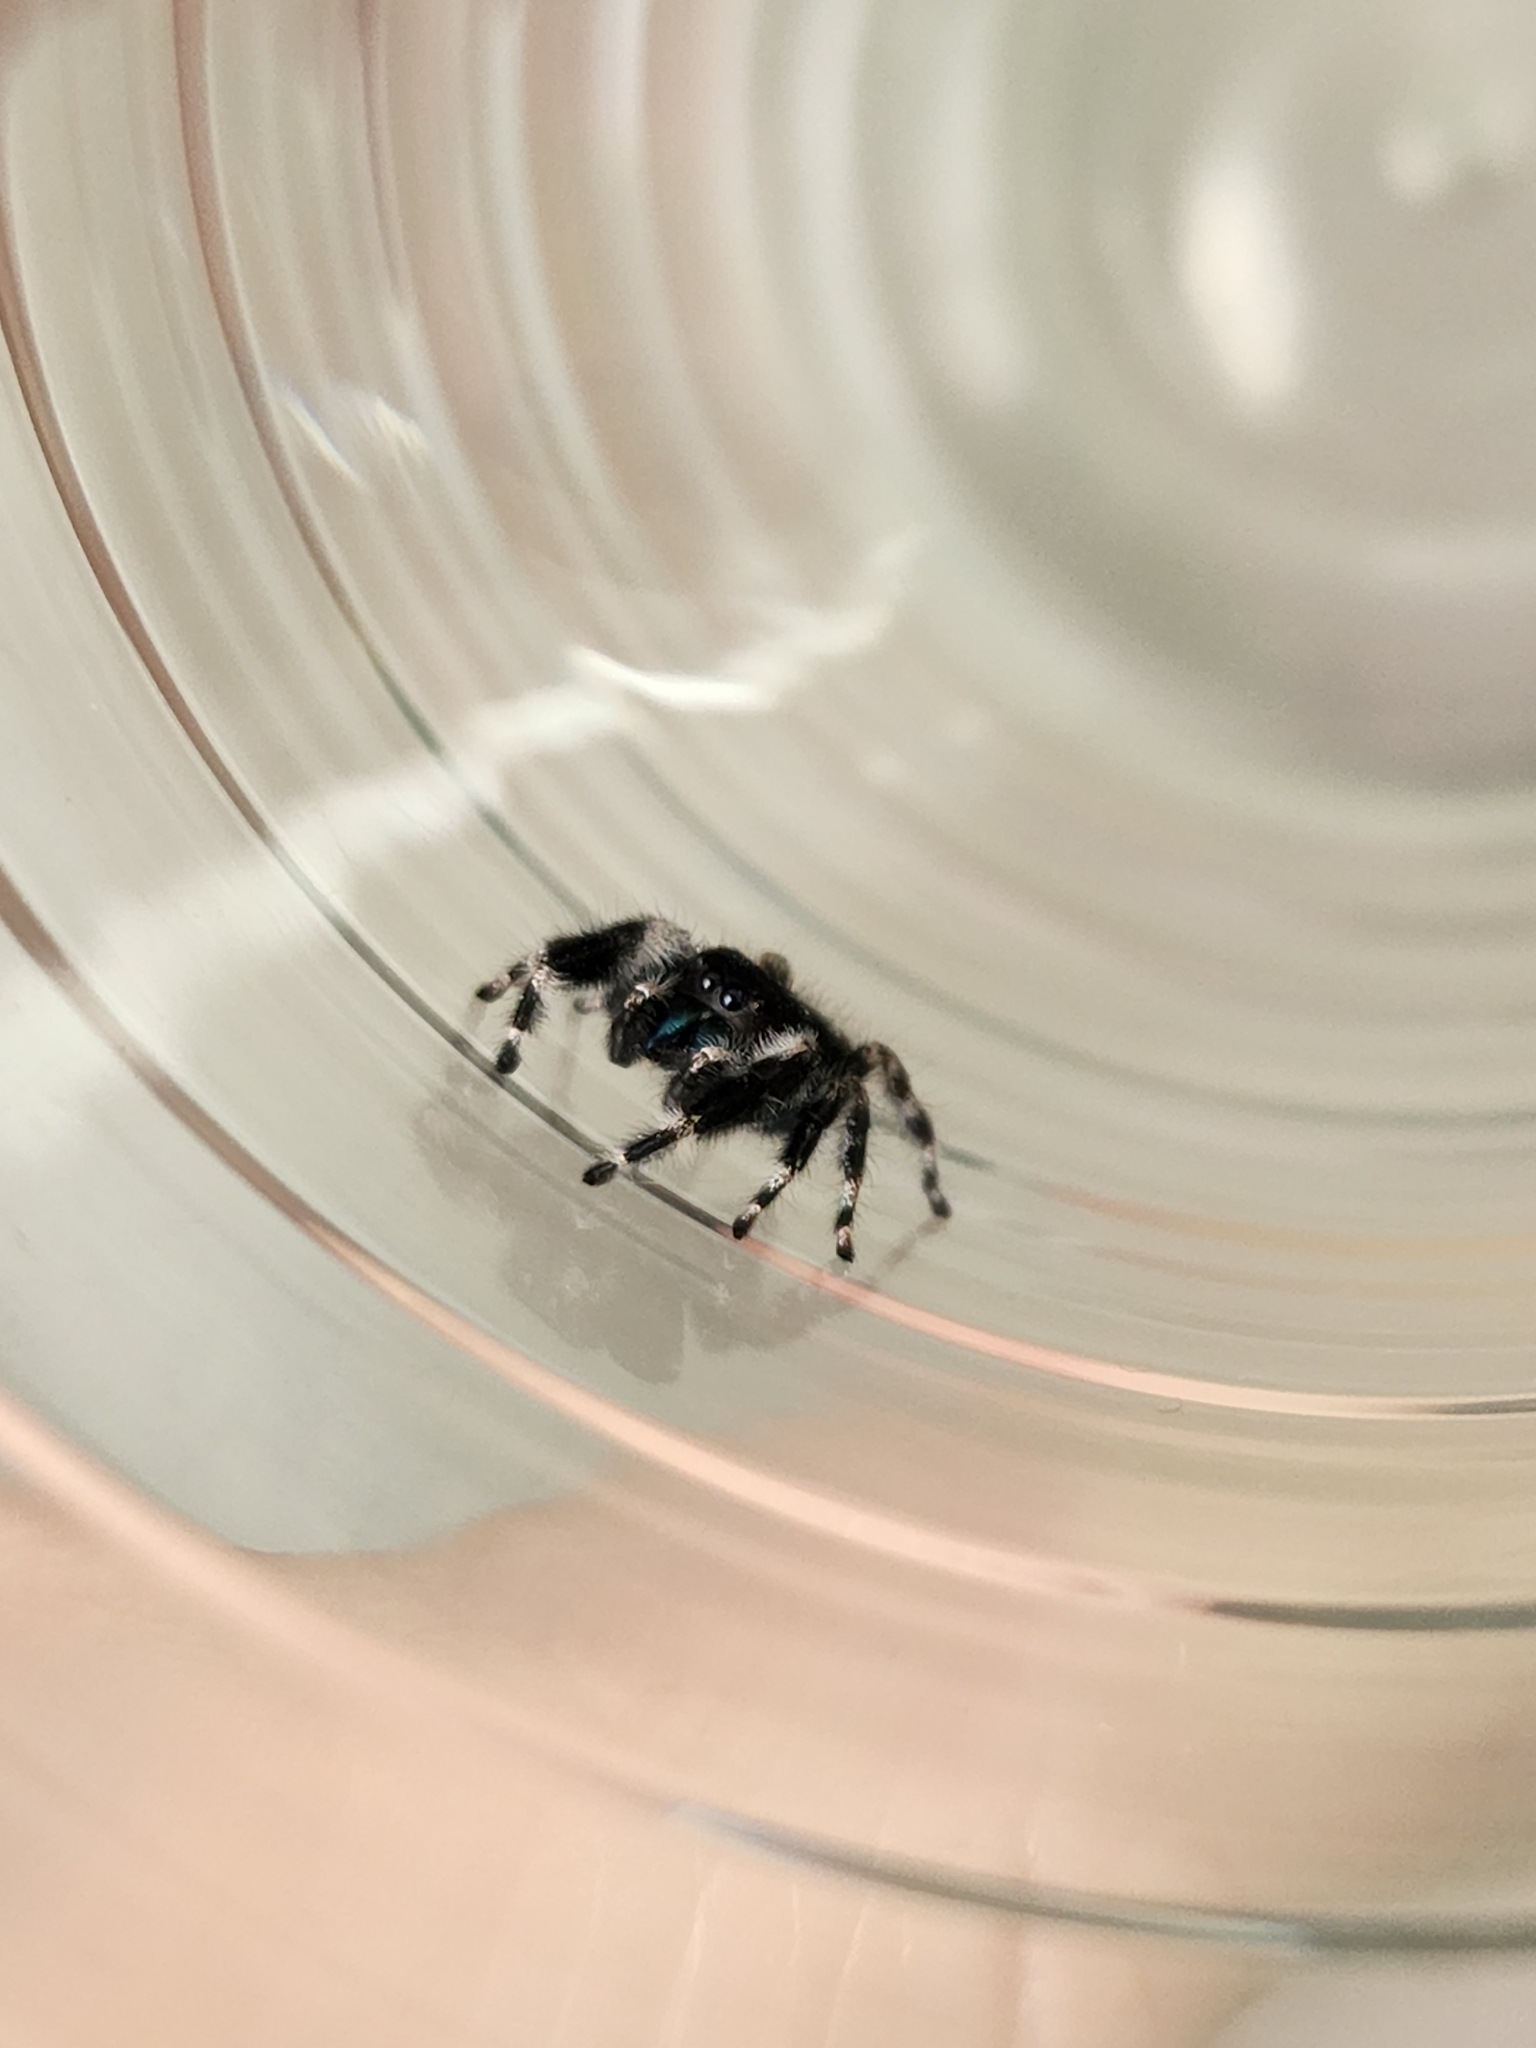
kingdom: Animalia
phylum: Arthropoda
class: Arachnida
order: Araneae
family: Salticidae
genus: Phidippus
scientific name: Phidippus audax
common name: Bold jumper
